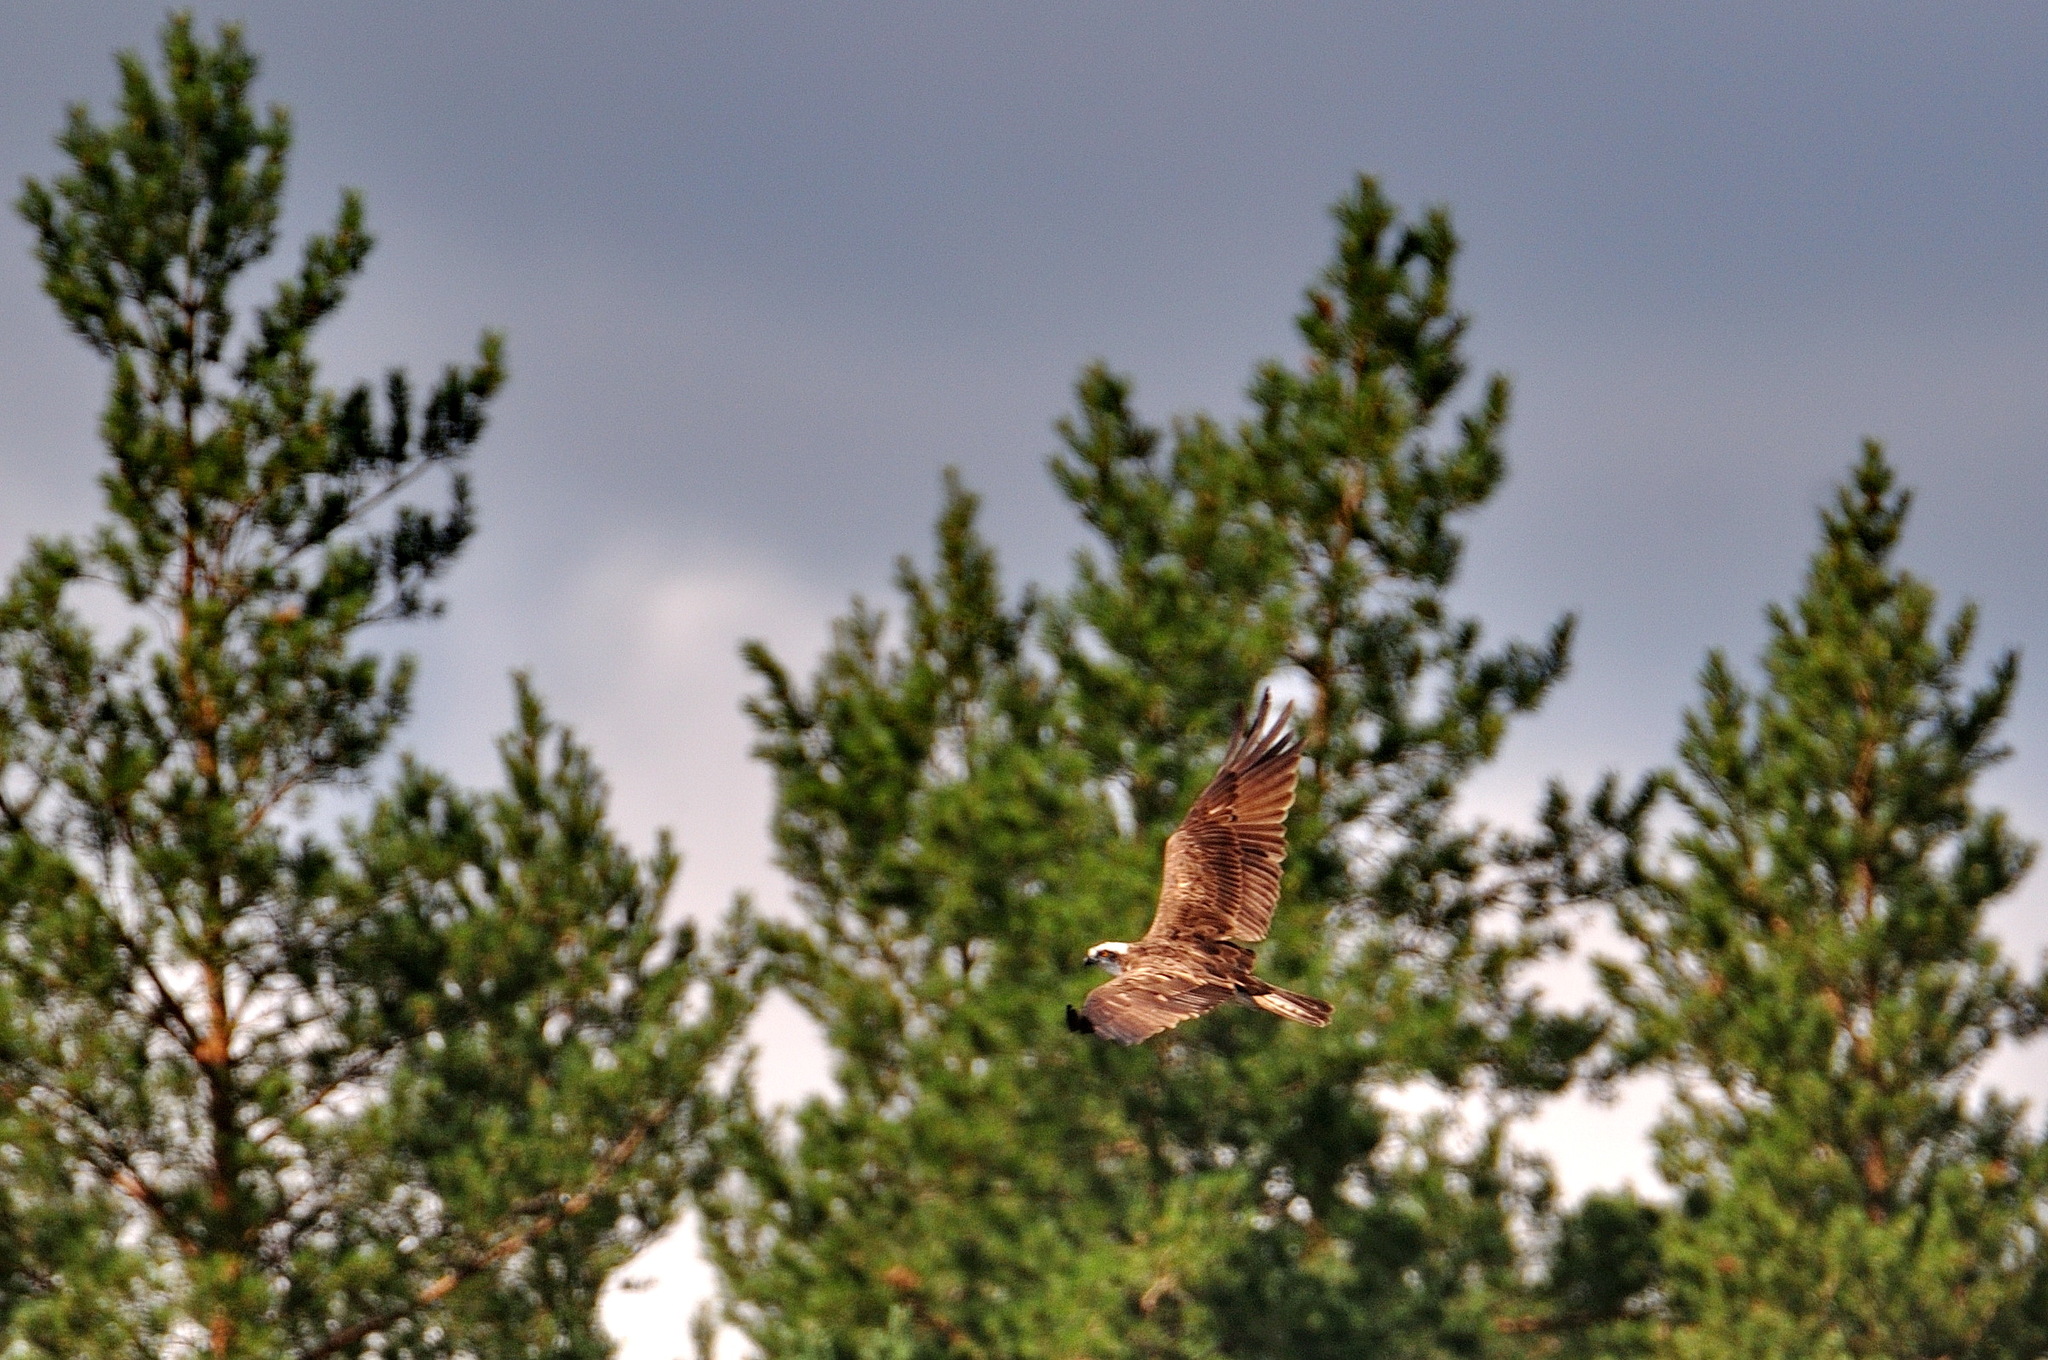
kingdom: Animalia
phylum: Chordata
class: Aves
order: Accipitriformes
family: Pandionidae
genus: Pandion
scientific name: Pandion haliaetus
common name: Osprey
